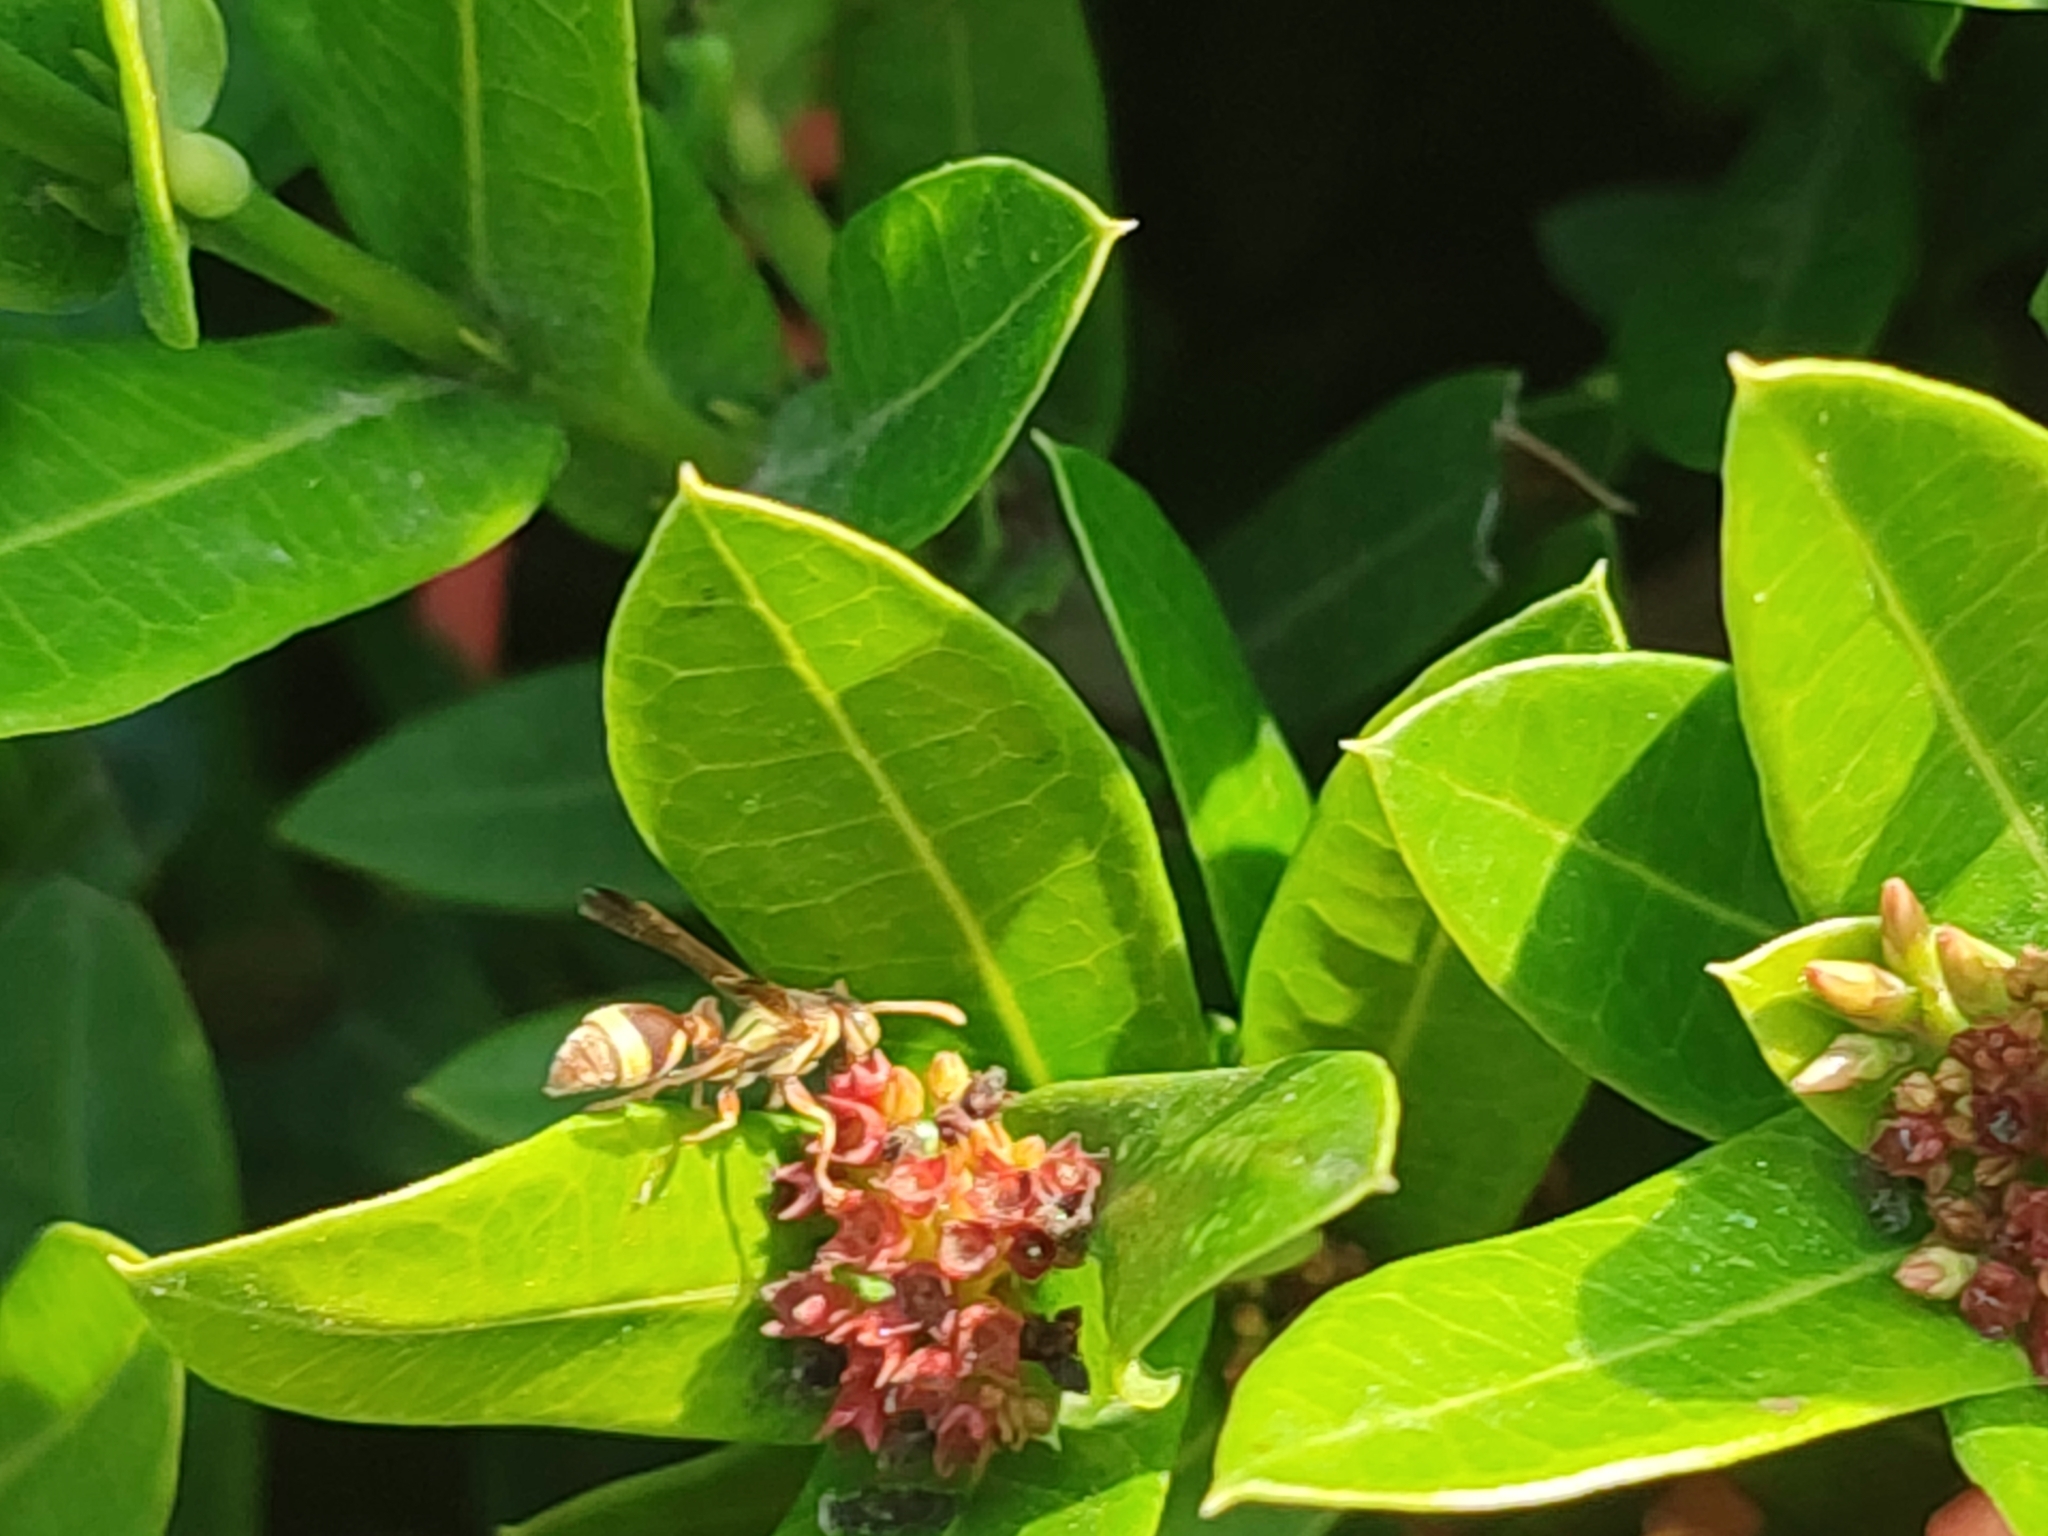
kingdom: Animalia
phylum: Arthropoda
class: Insecta
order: Hymenoptera
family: Vespidae
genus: Ropalidia
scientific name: Ropalidia fasciata
